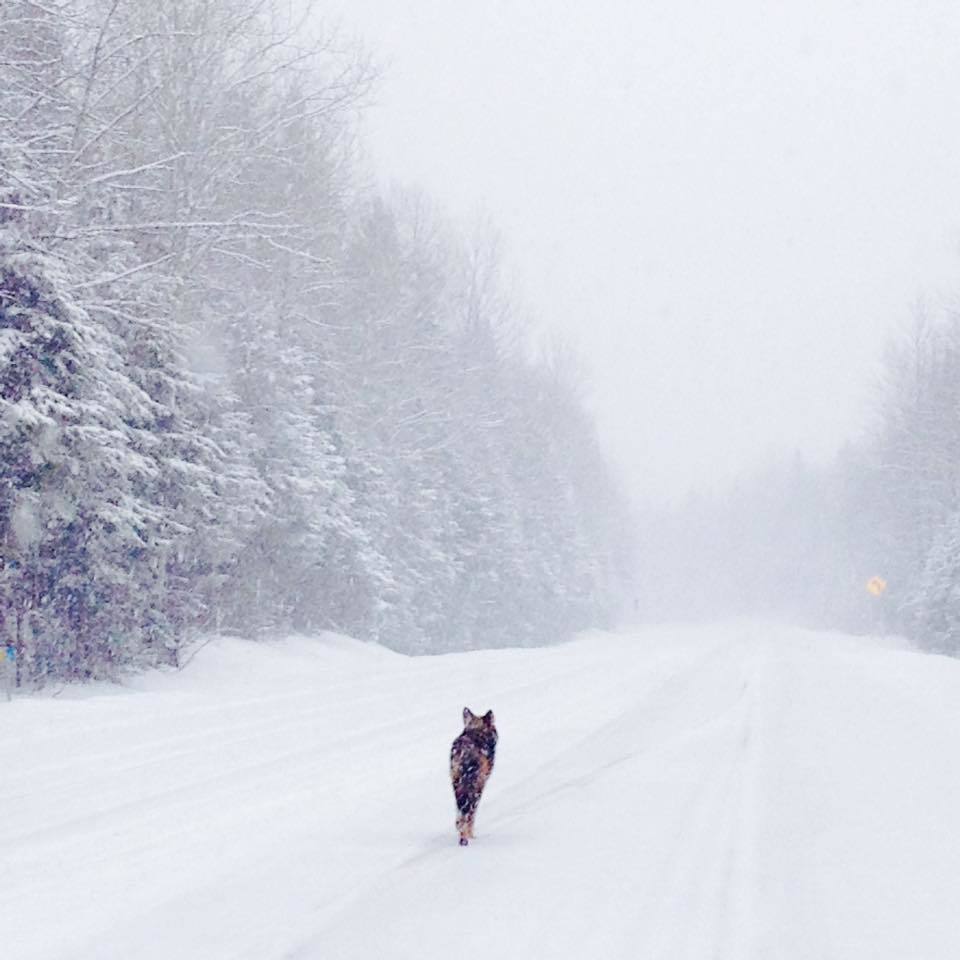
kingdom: Animalia
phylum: Chordata
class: Mammalia
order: Carnivora
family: Canidae
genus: Canis
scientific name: Canis latrans
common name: Coyote
